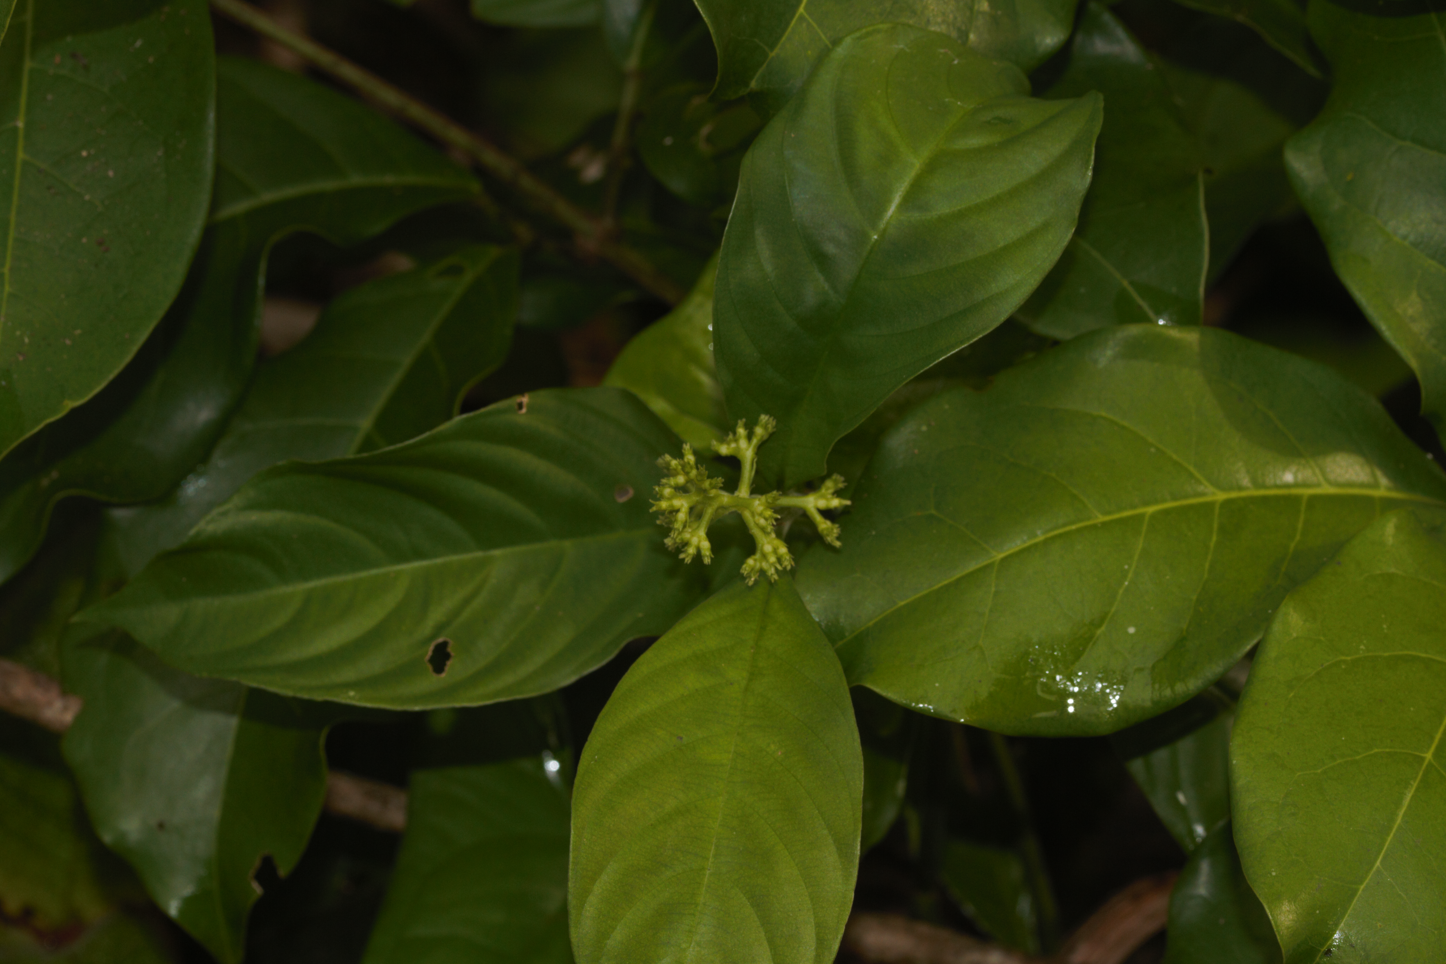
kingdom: Plantae
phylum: Tracheophyta
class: Magnoliopsida
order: Gentianales
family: Rubiaceae
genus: Palicourea
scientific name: Palicourea racemosa
